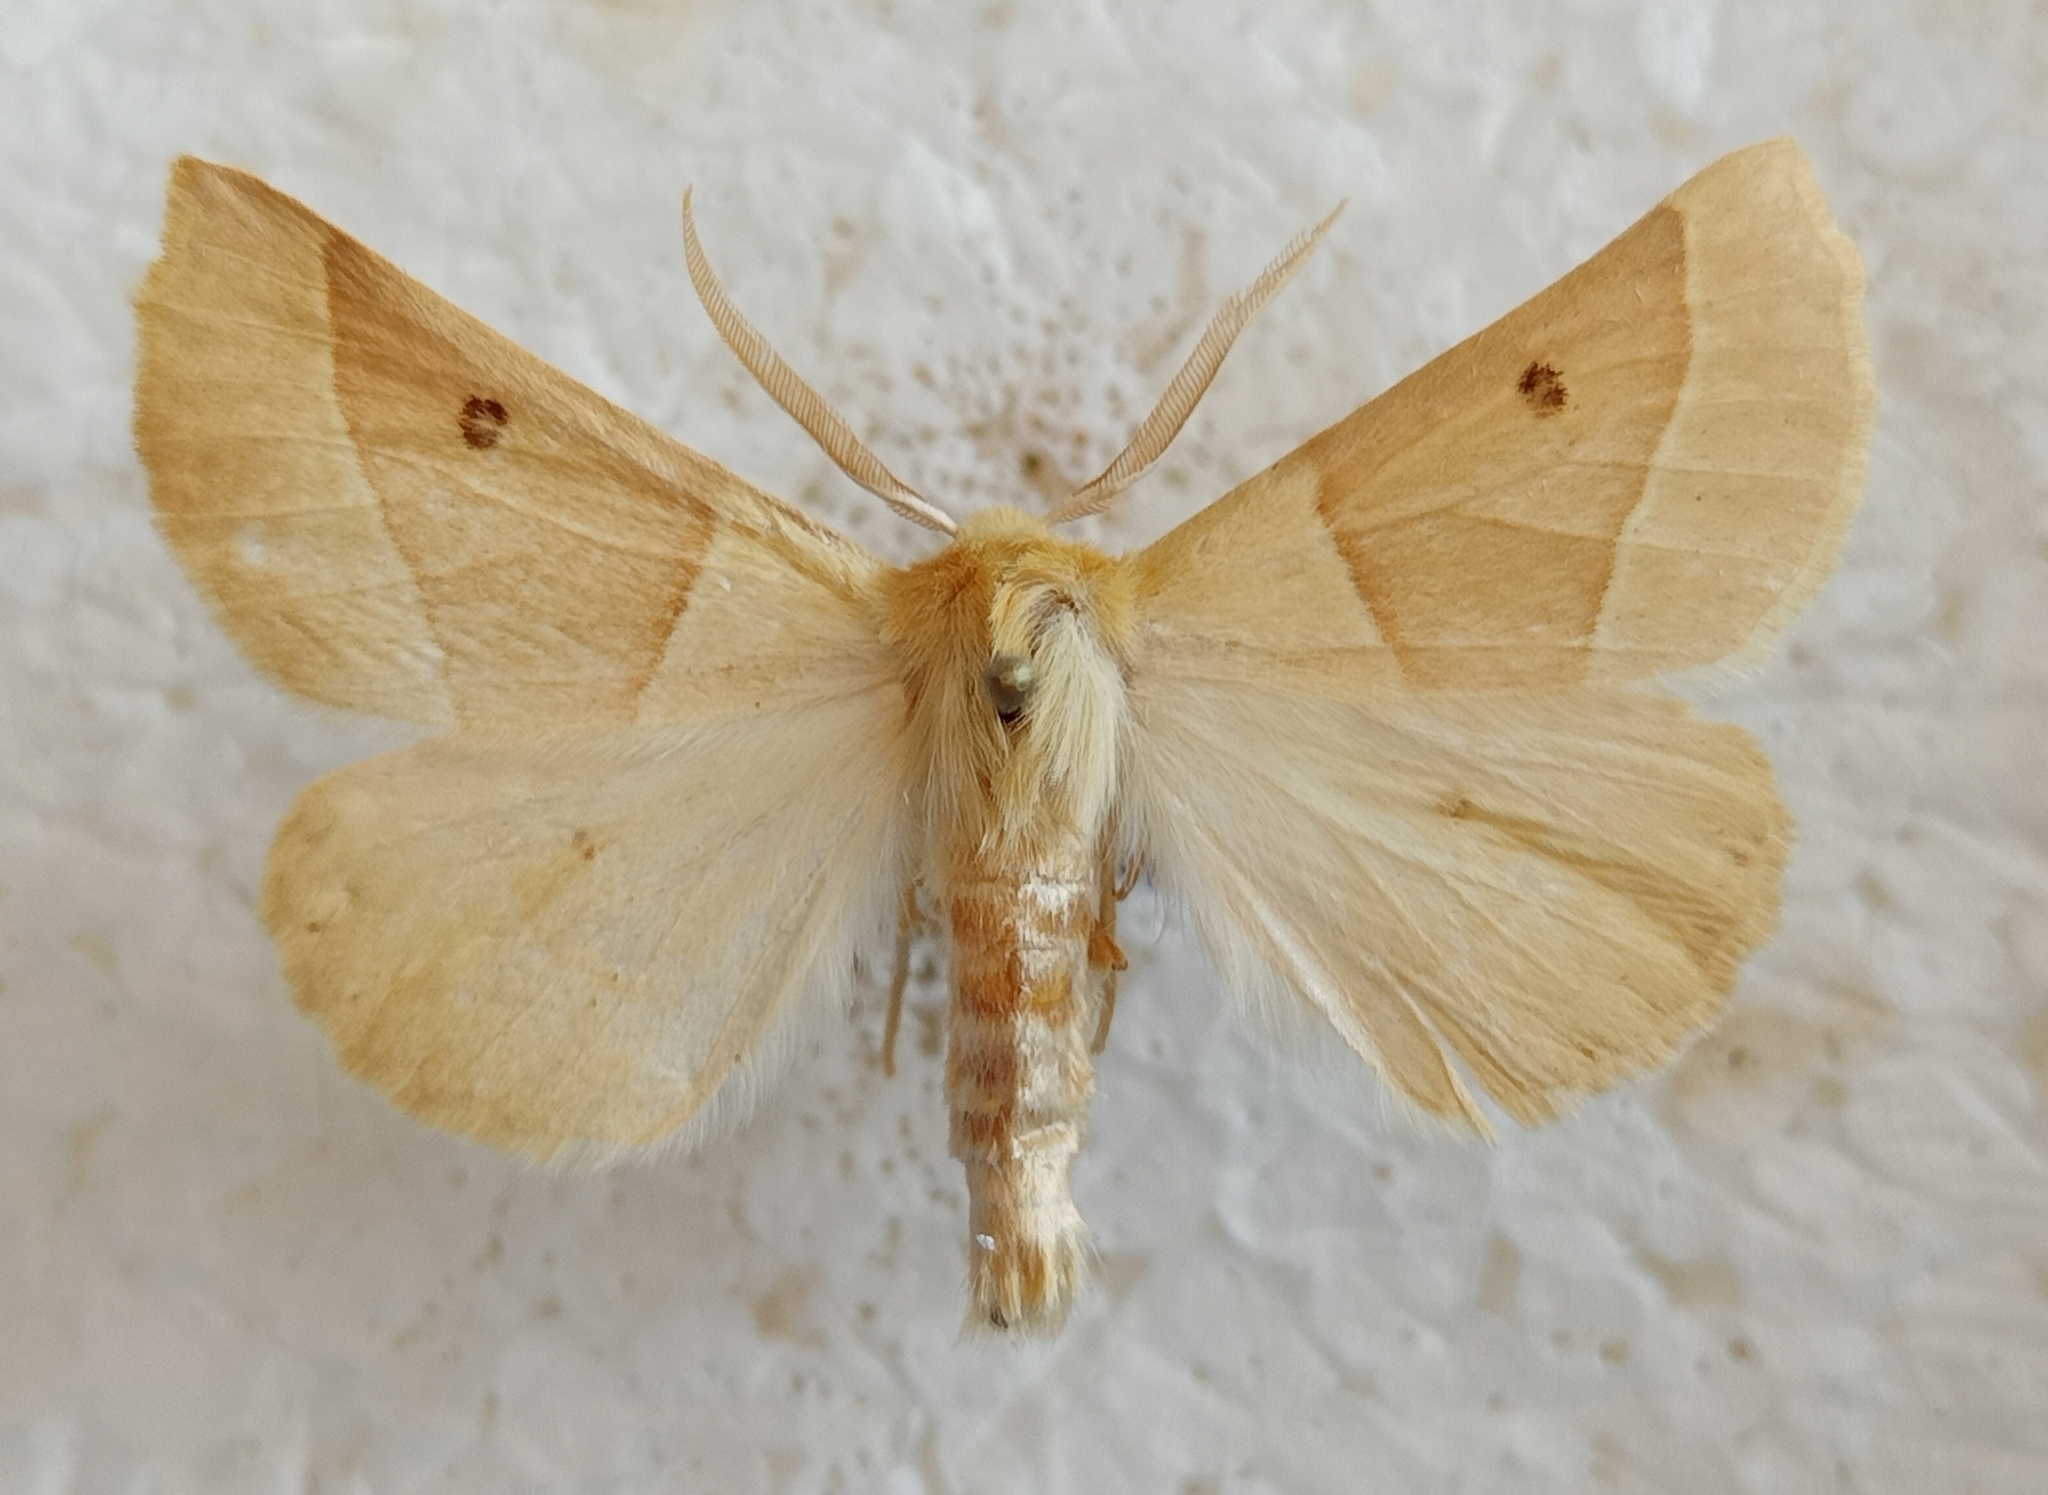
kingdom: Animalia
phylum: Arthropoda
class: Insecta
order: Lepidoptera
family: Geometridae
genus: Crocallis
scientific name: Crocallis elinguaria
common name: Scalloped oak
